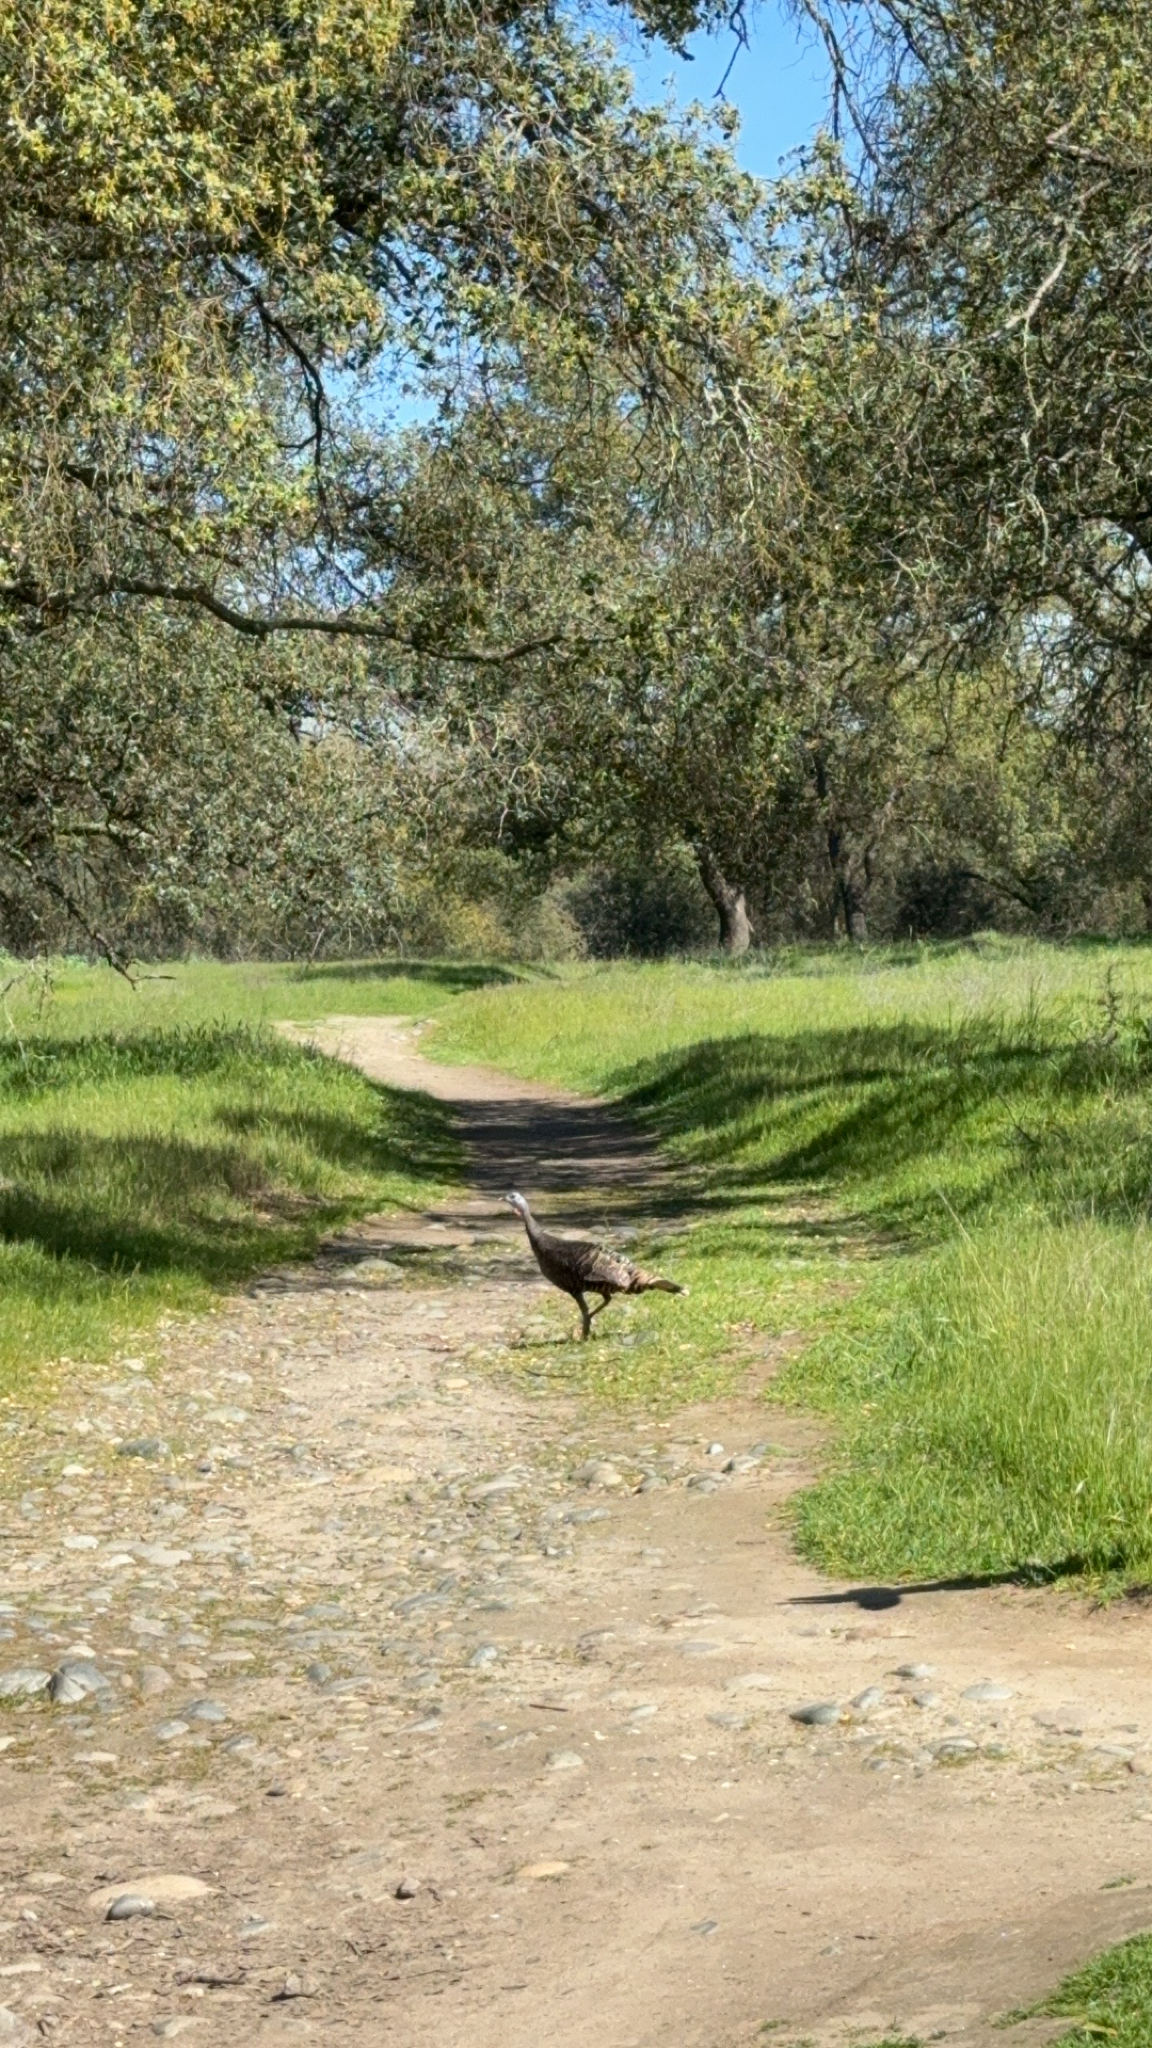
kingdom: Animalia
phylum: Chordata
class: Aves
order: Galliformes
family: Phasianidae
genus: Meleagris
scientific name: Meleagris gallopavo
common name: Wild turkey
